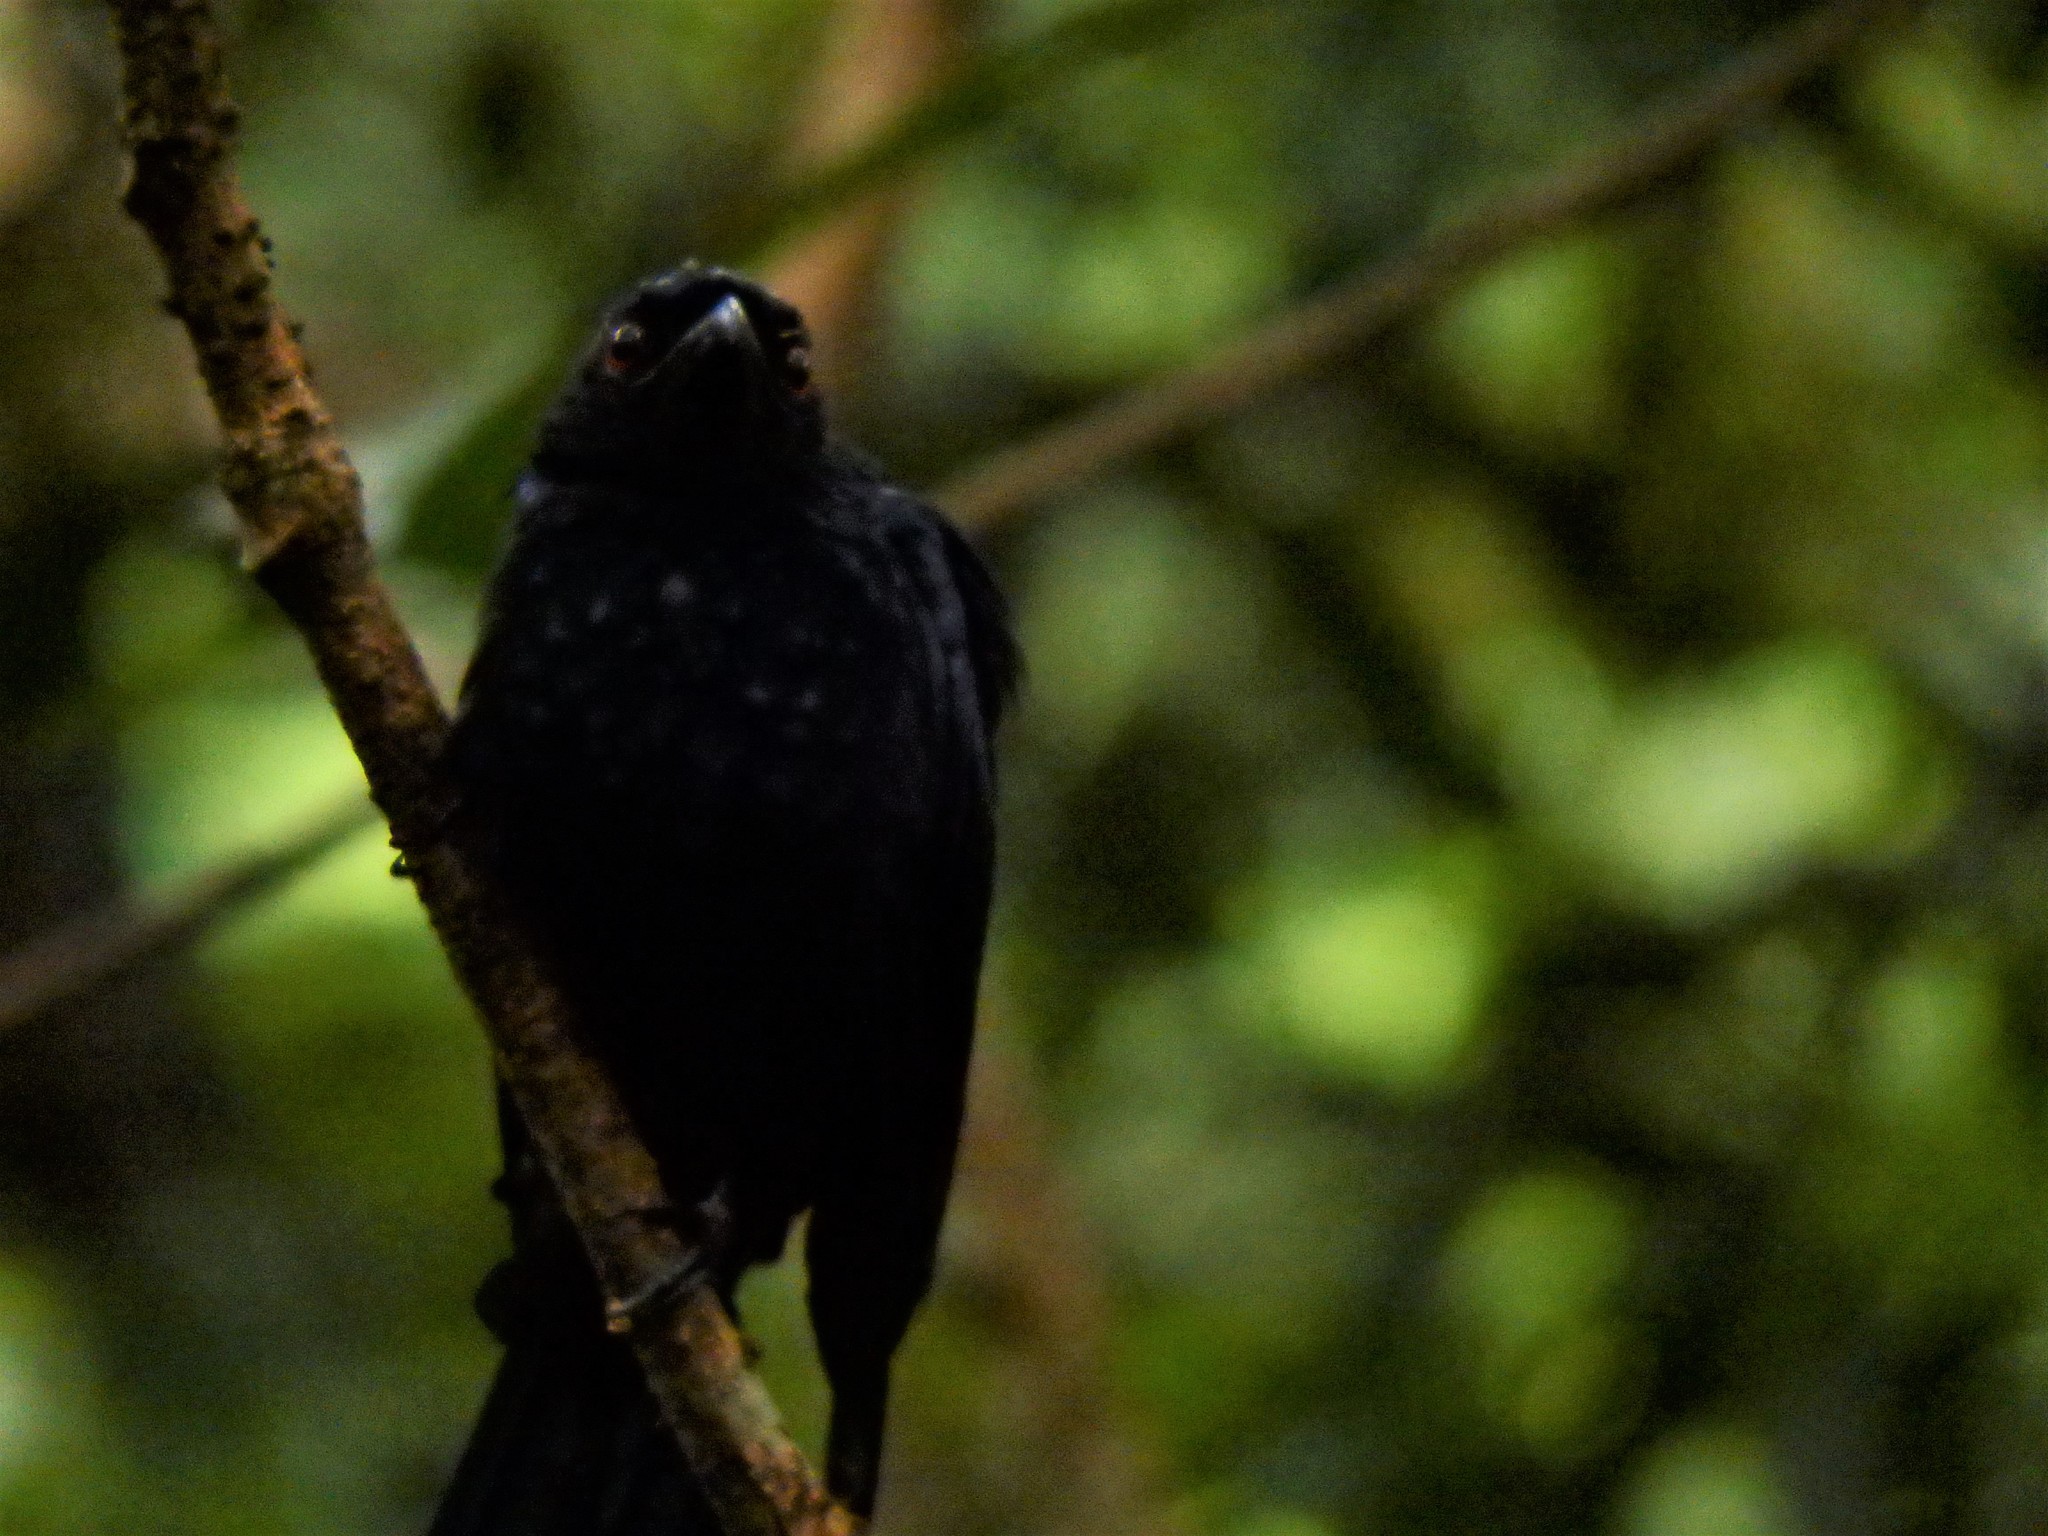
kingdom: Animalia
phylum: Chordata
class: Aves
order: Passeriformes
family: Dicruridae
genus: Dicrurus
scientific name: Dicrurus paradiseus
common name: Greater racket-tailed drongo
